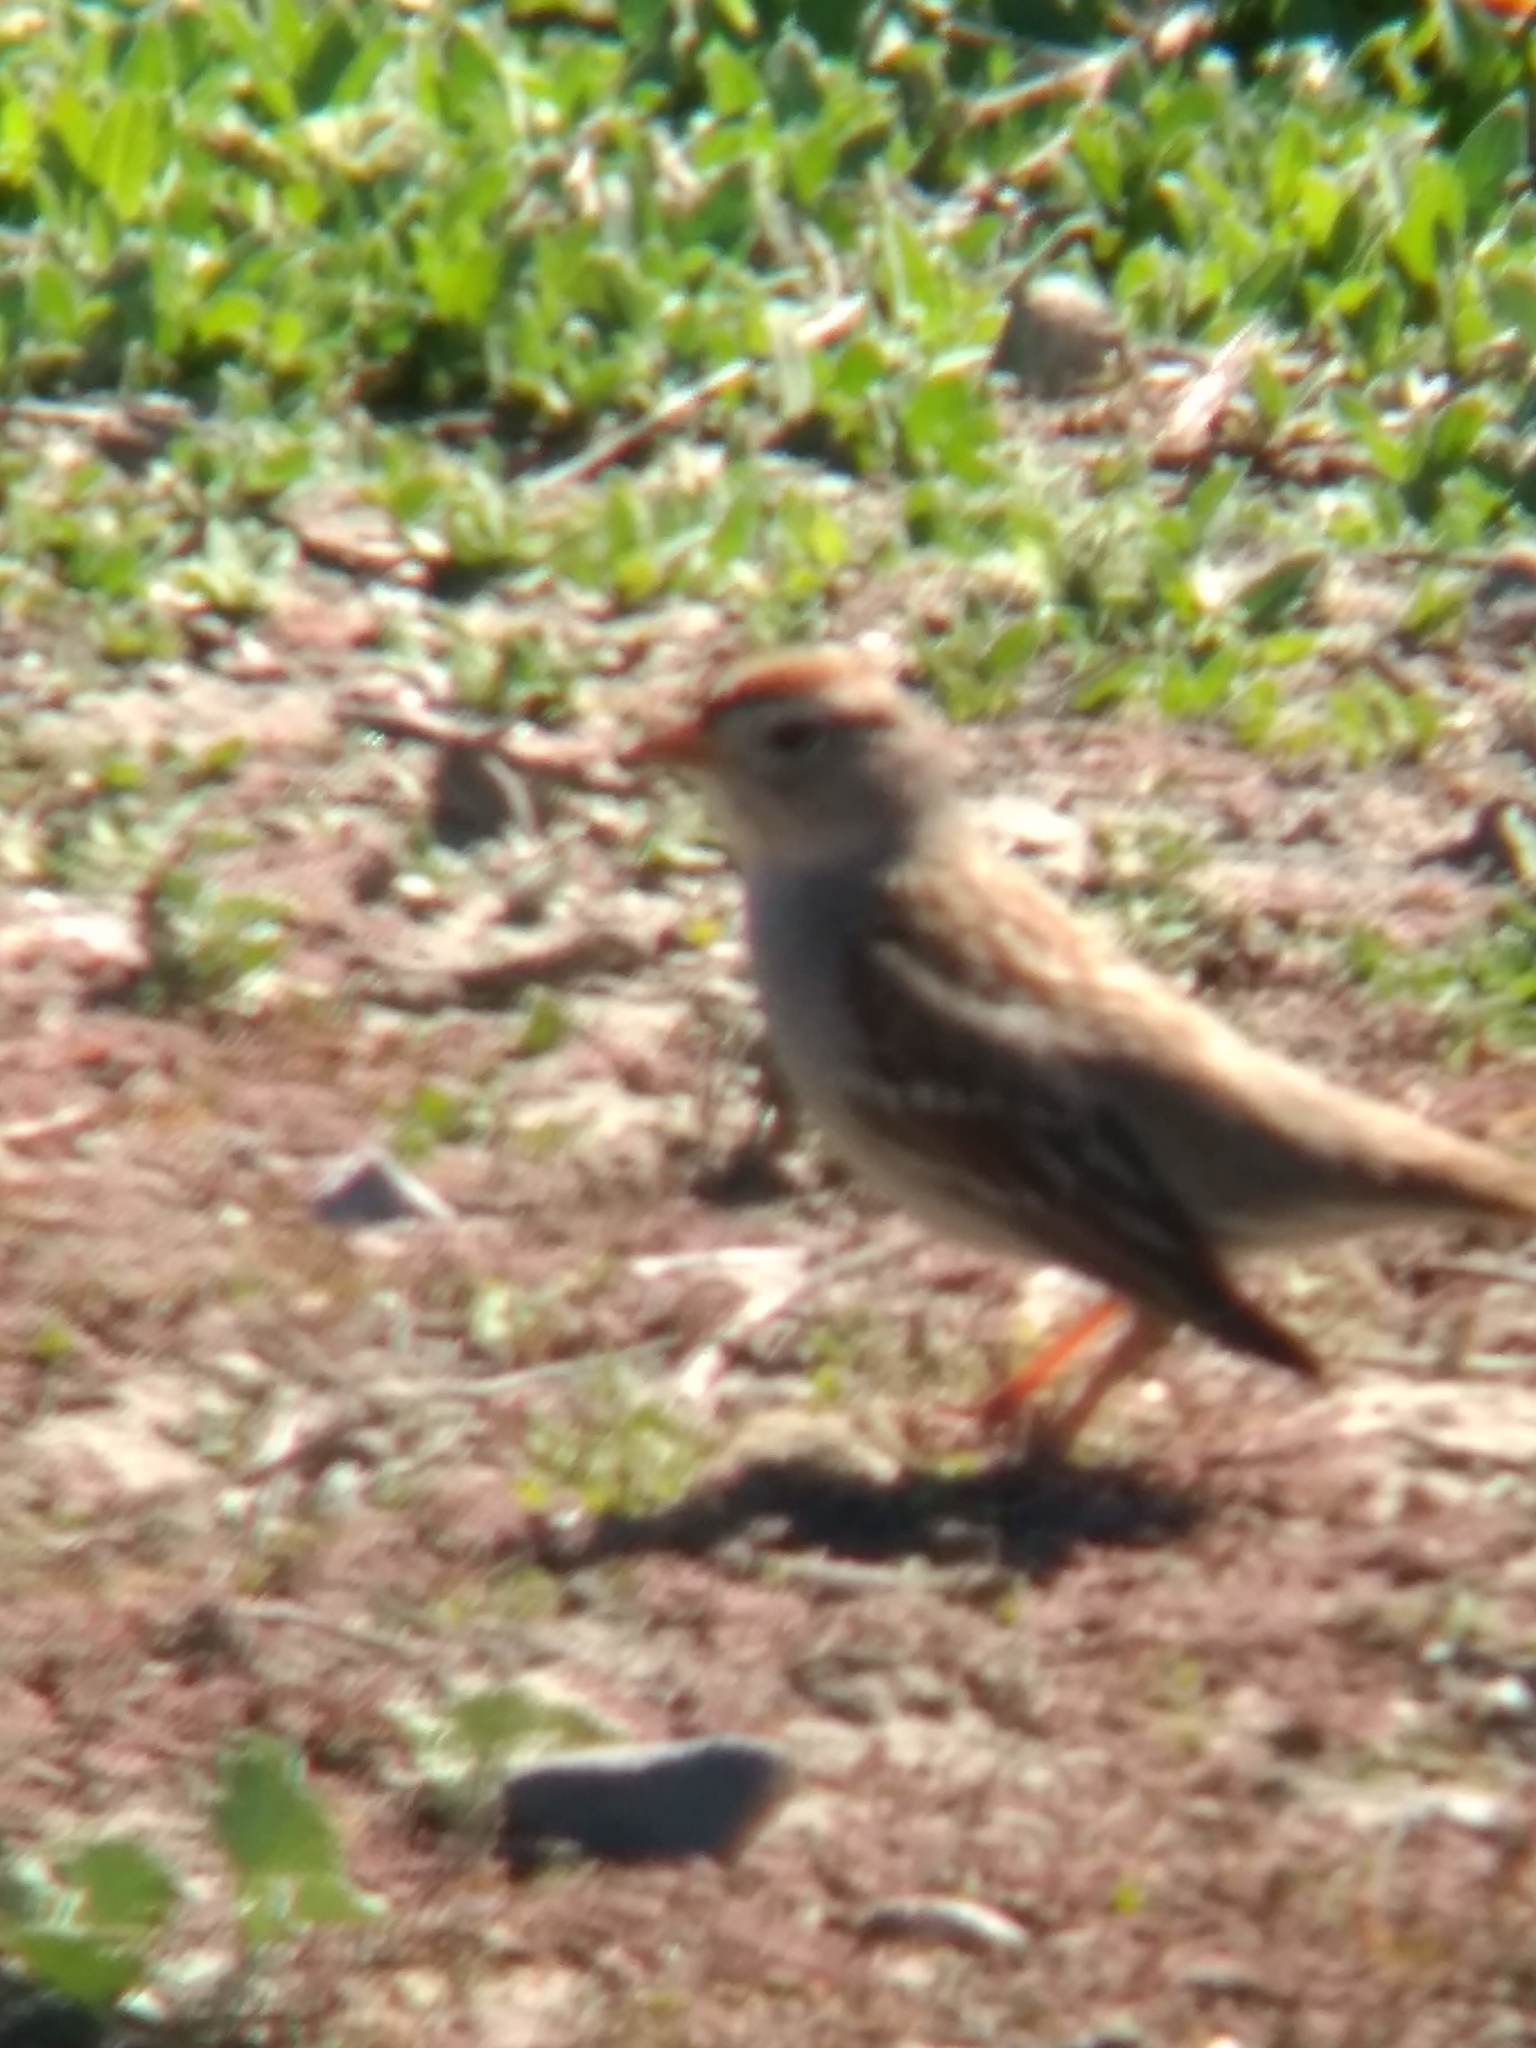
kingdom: Animalia
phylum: Chordata
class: Aves
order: Passeriformes
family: Passerellidae
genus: Zonotrichia
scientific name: Zonotrichia leucophrys
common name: White-crowned sparrow
